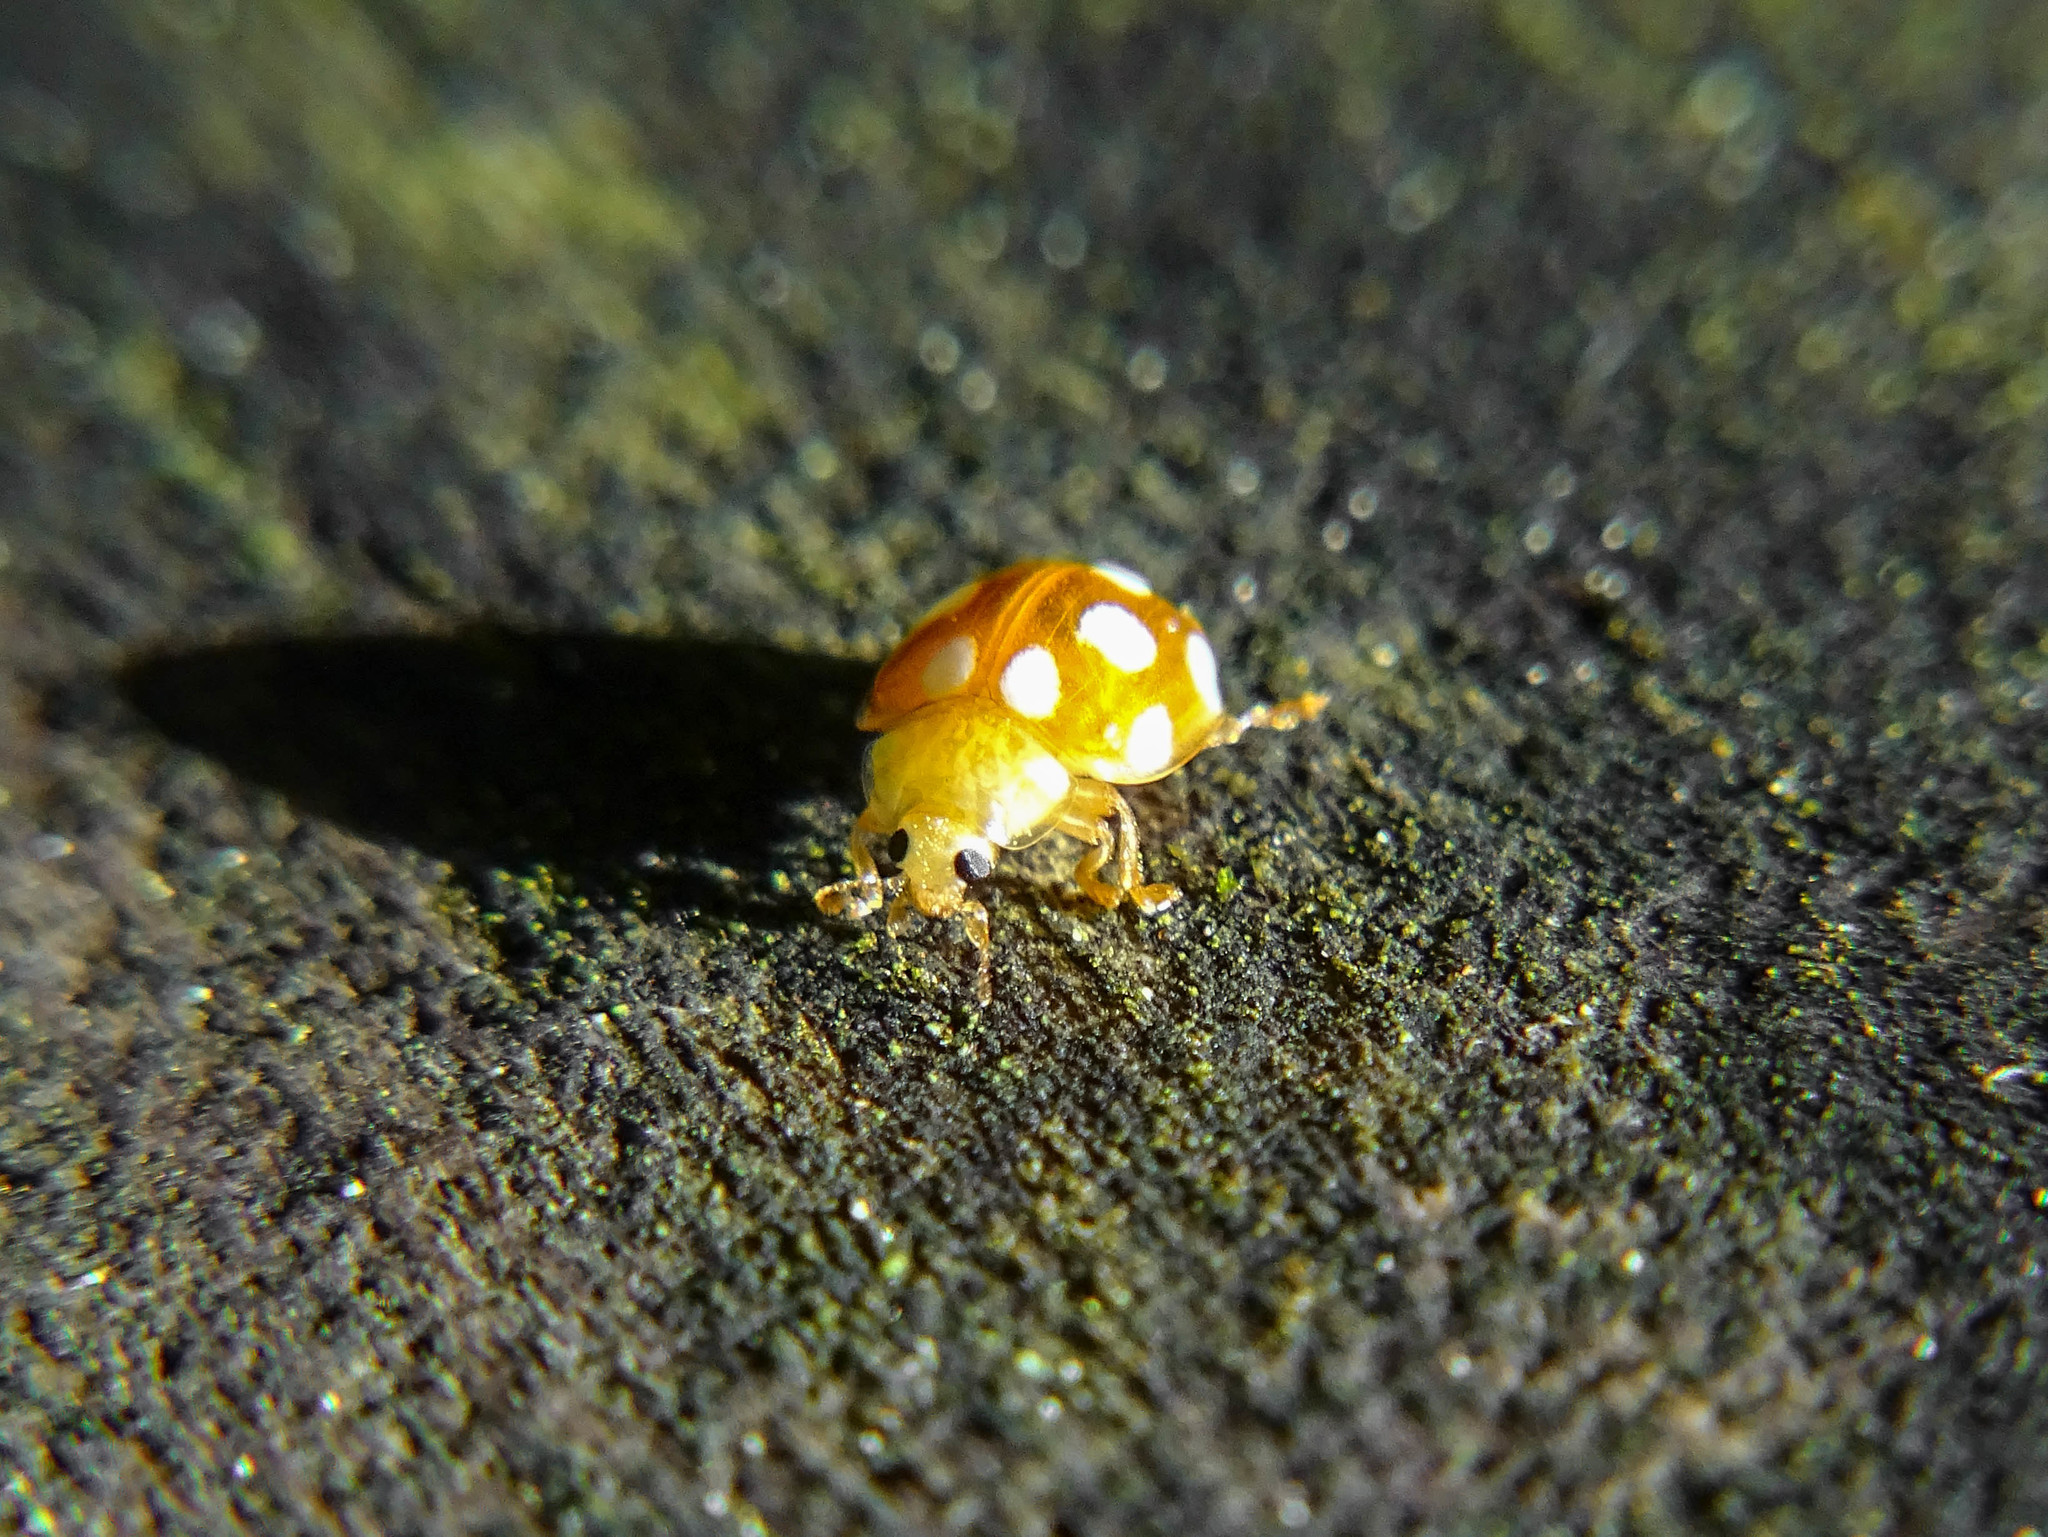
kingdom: Animalia
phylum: Arthropoda
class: Insecta
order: Coleoptera
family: Coccinellidae
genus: Vibidia
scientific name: Vibidia duodecimguttata
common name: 12-spot ladybird
